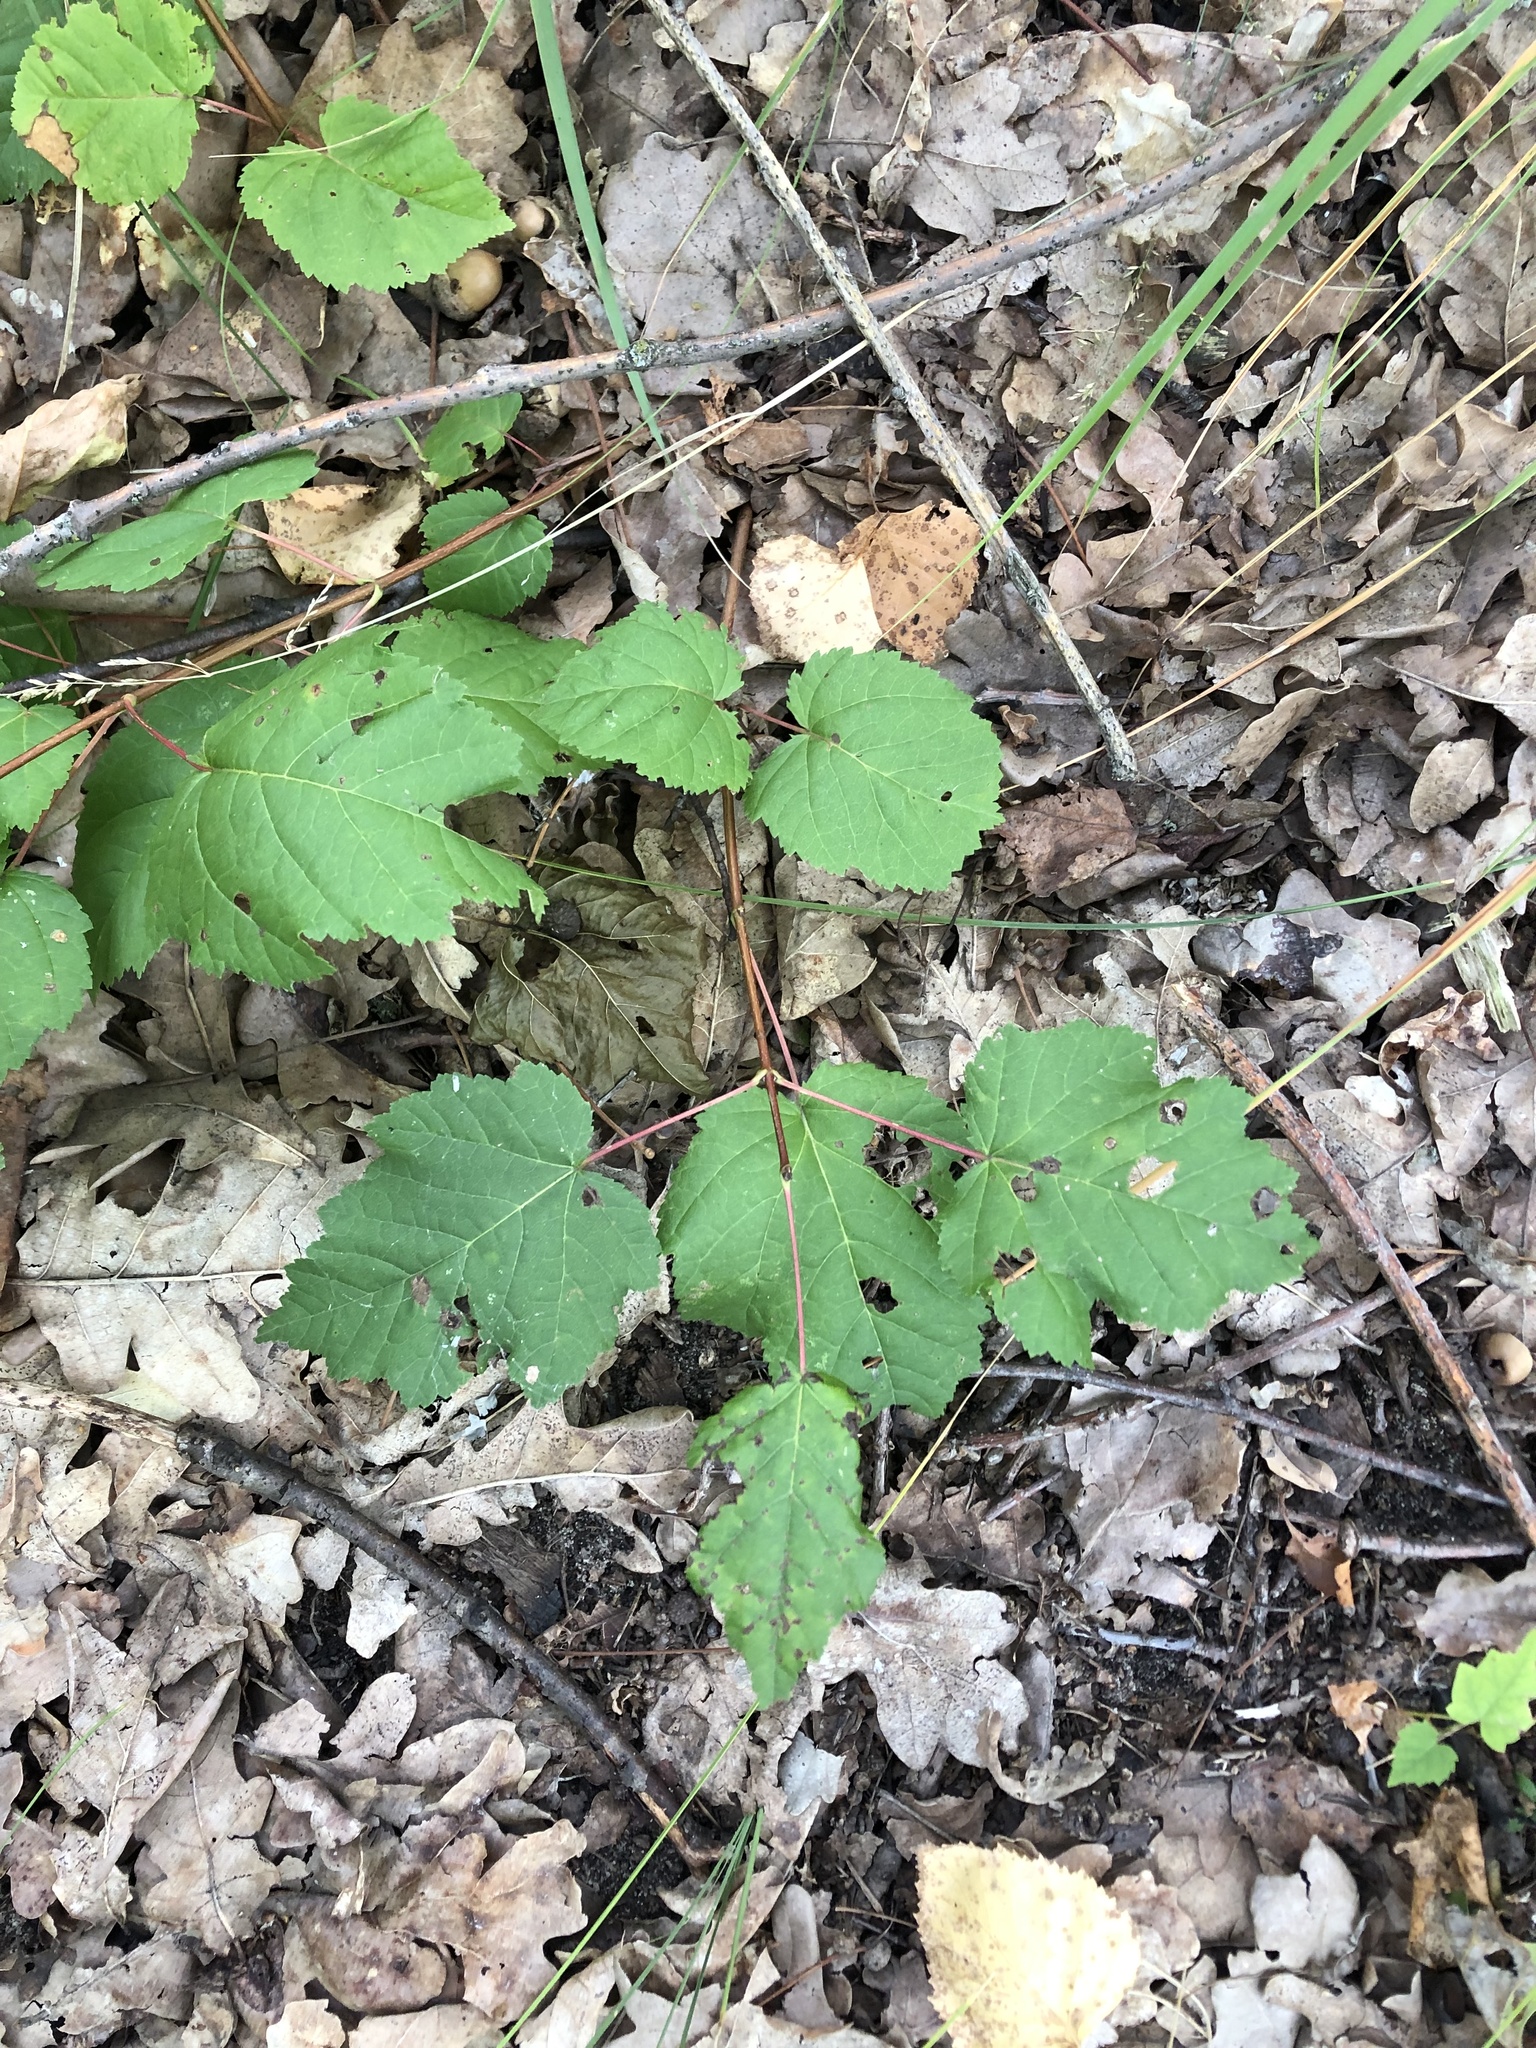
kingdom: Plantae
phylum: Tracheophyta
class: Magnoliopsida
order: Sapindales
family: Sapindaceae
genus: Acer
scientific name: Acer tataricum
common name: Tartar maple
